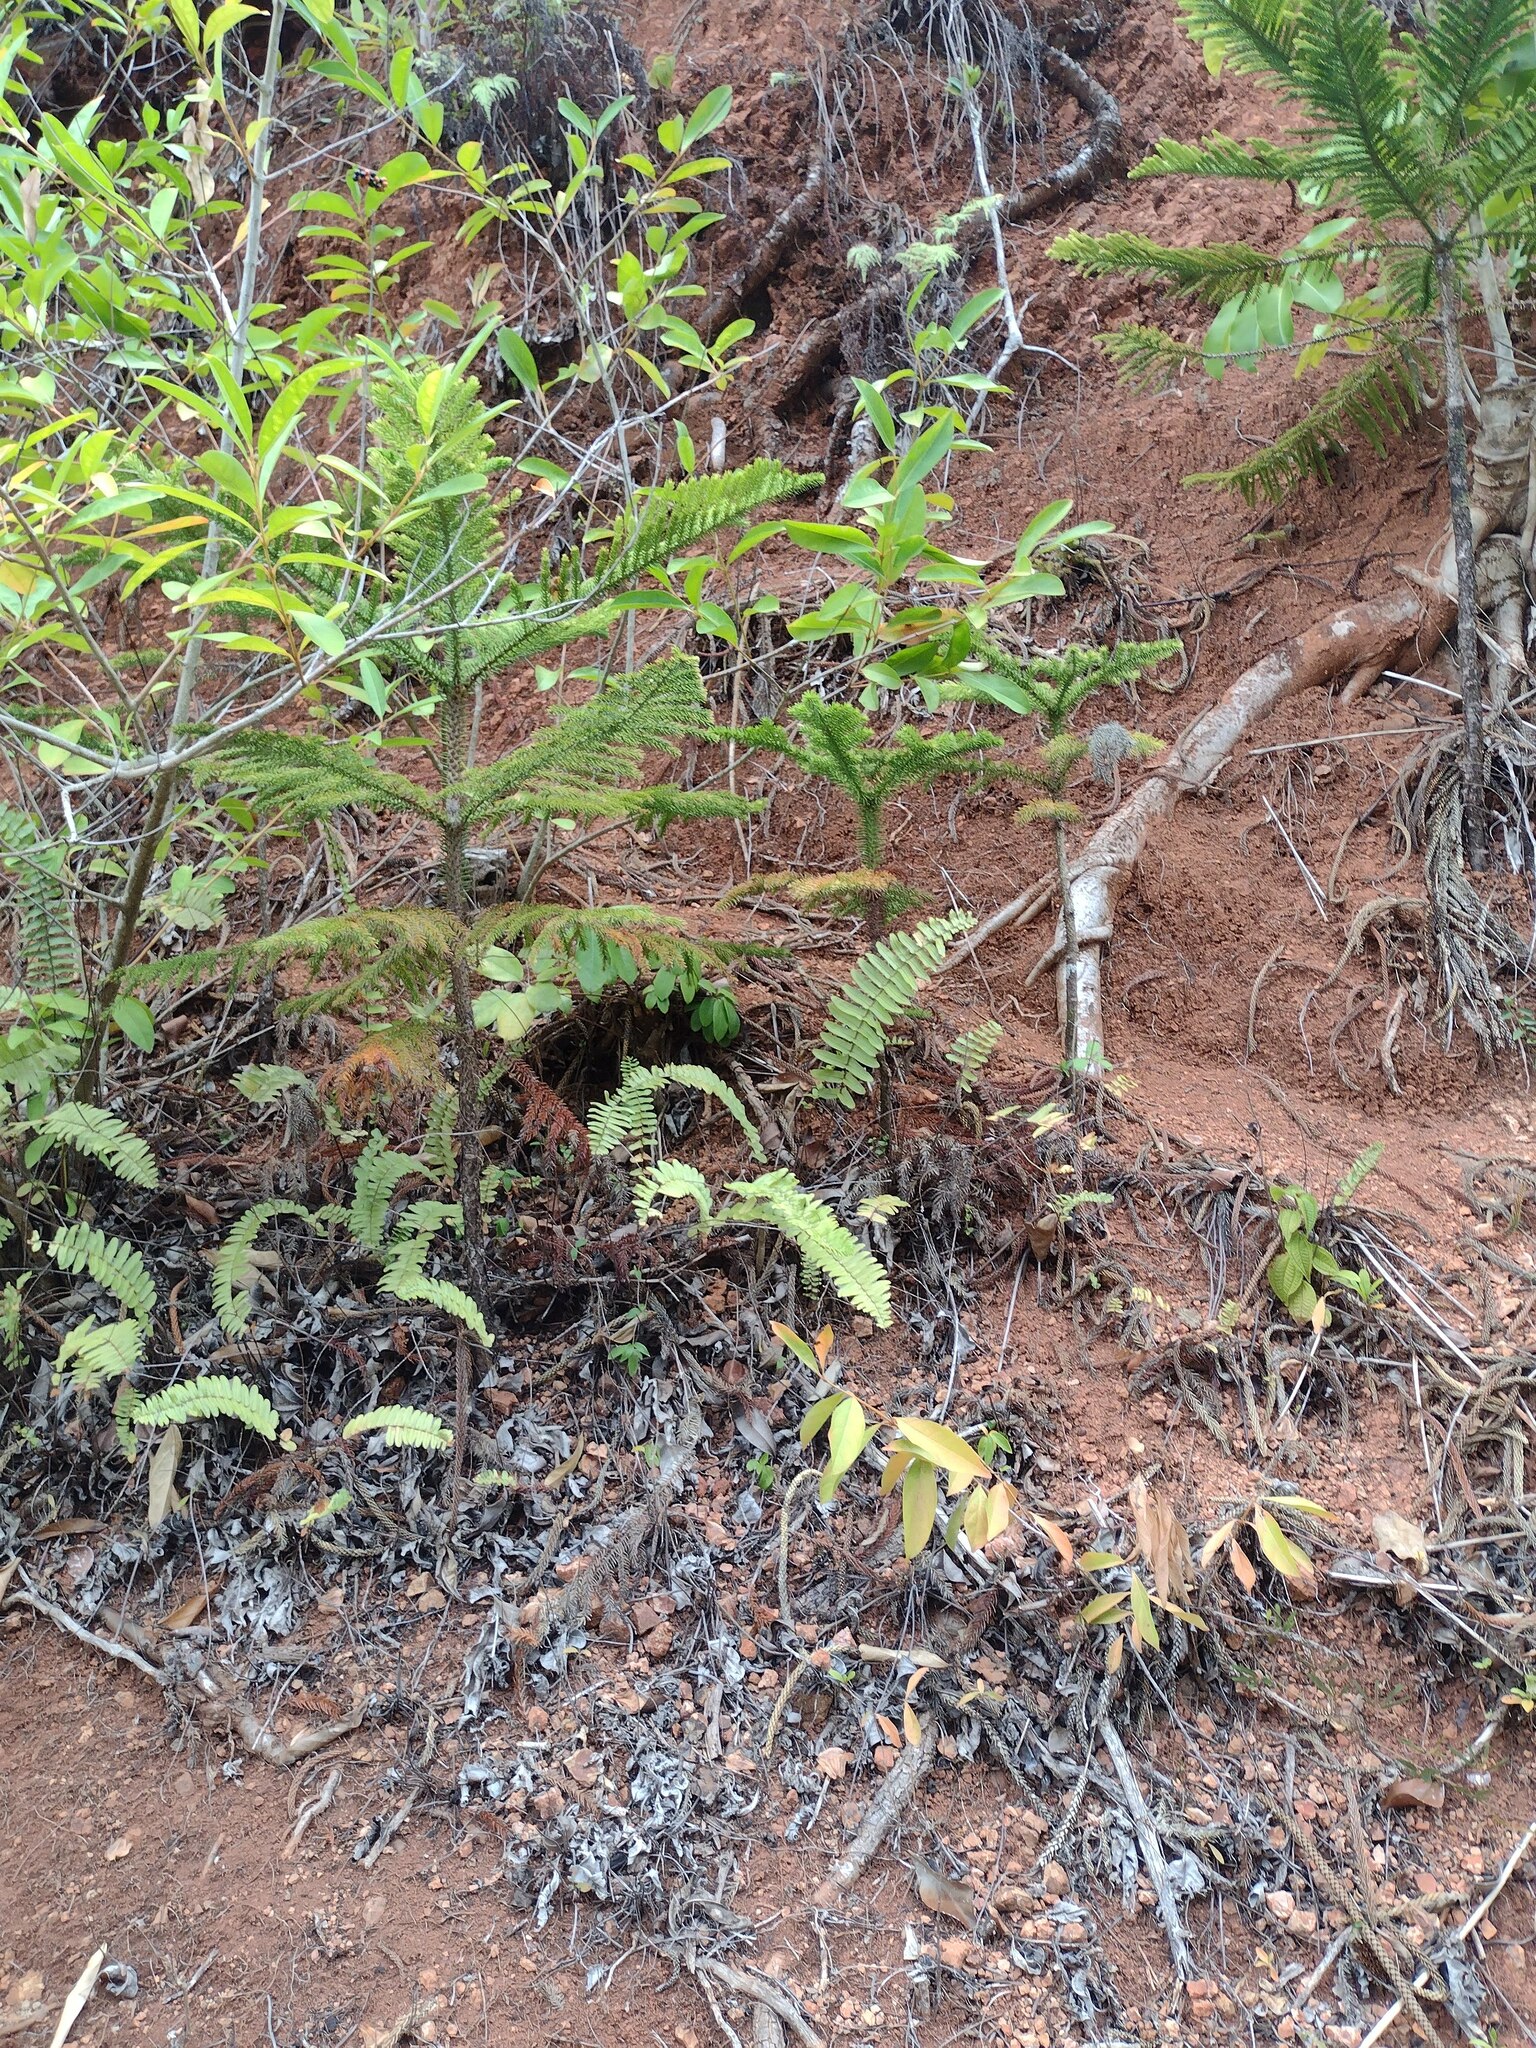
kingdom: Plantae
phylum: Tracheophyta
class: Pinopsida
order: Pinales
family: Araucariaceae
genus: Araucaria
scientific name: Araucaria columnaris
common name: Coral reef araucaria
